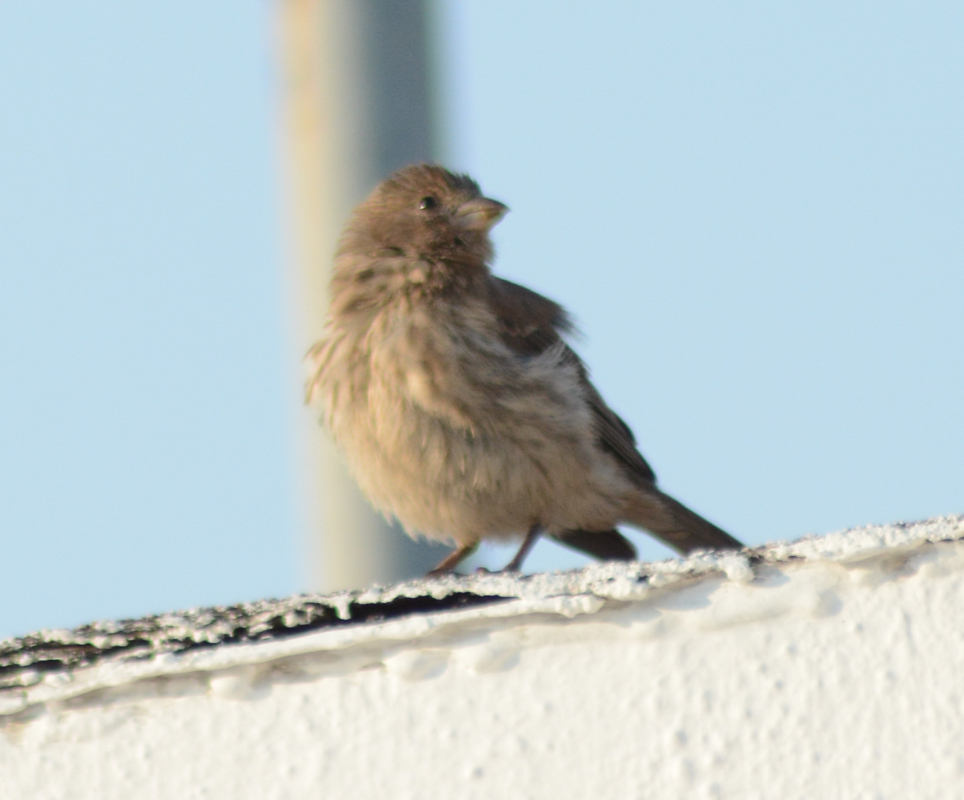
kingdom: Animalia
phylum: Chordata
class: Aves
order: Passeriformes
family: Fringillidae
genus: Haemorhous
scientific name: Haemorhous mexicanus
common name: House finch
